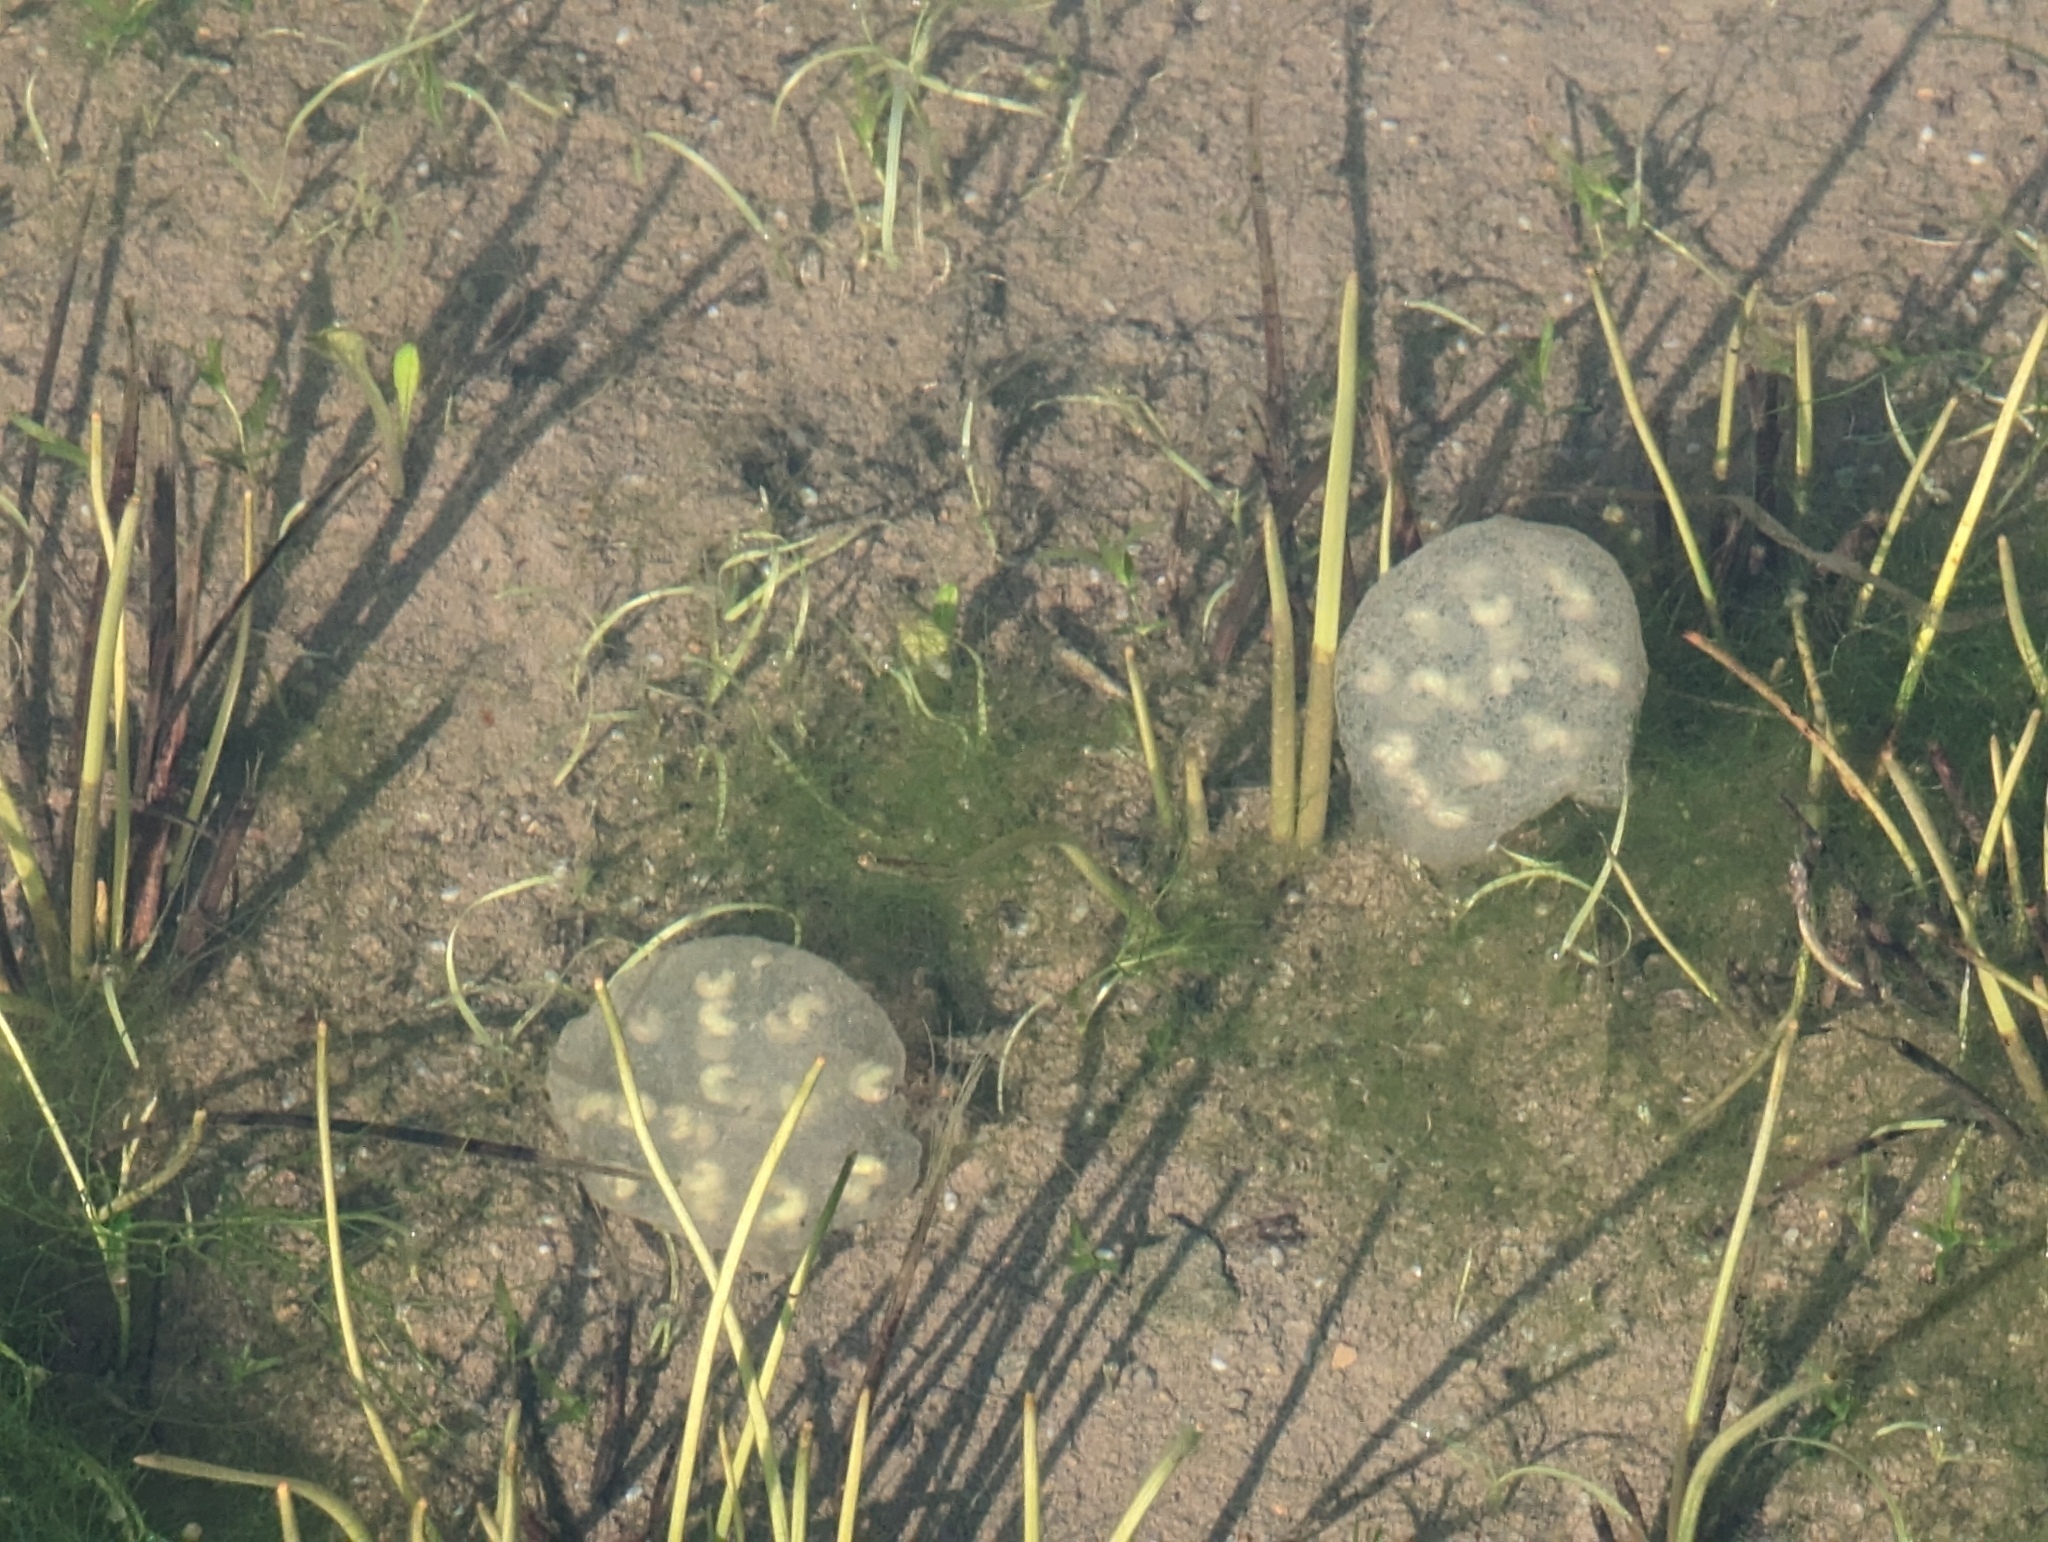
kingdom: Animalia
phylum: Chordata
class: Amphibia
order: Caudata
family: Salamandridae
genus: Taricha
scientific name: Taricha torosa
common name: California newt
